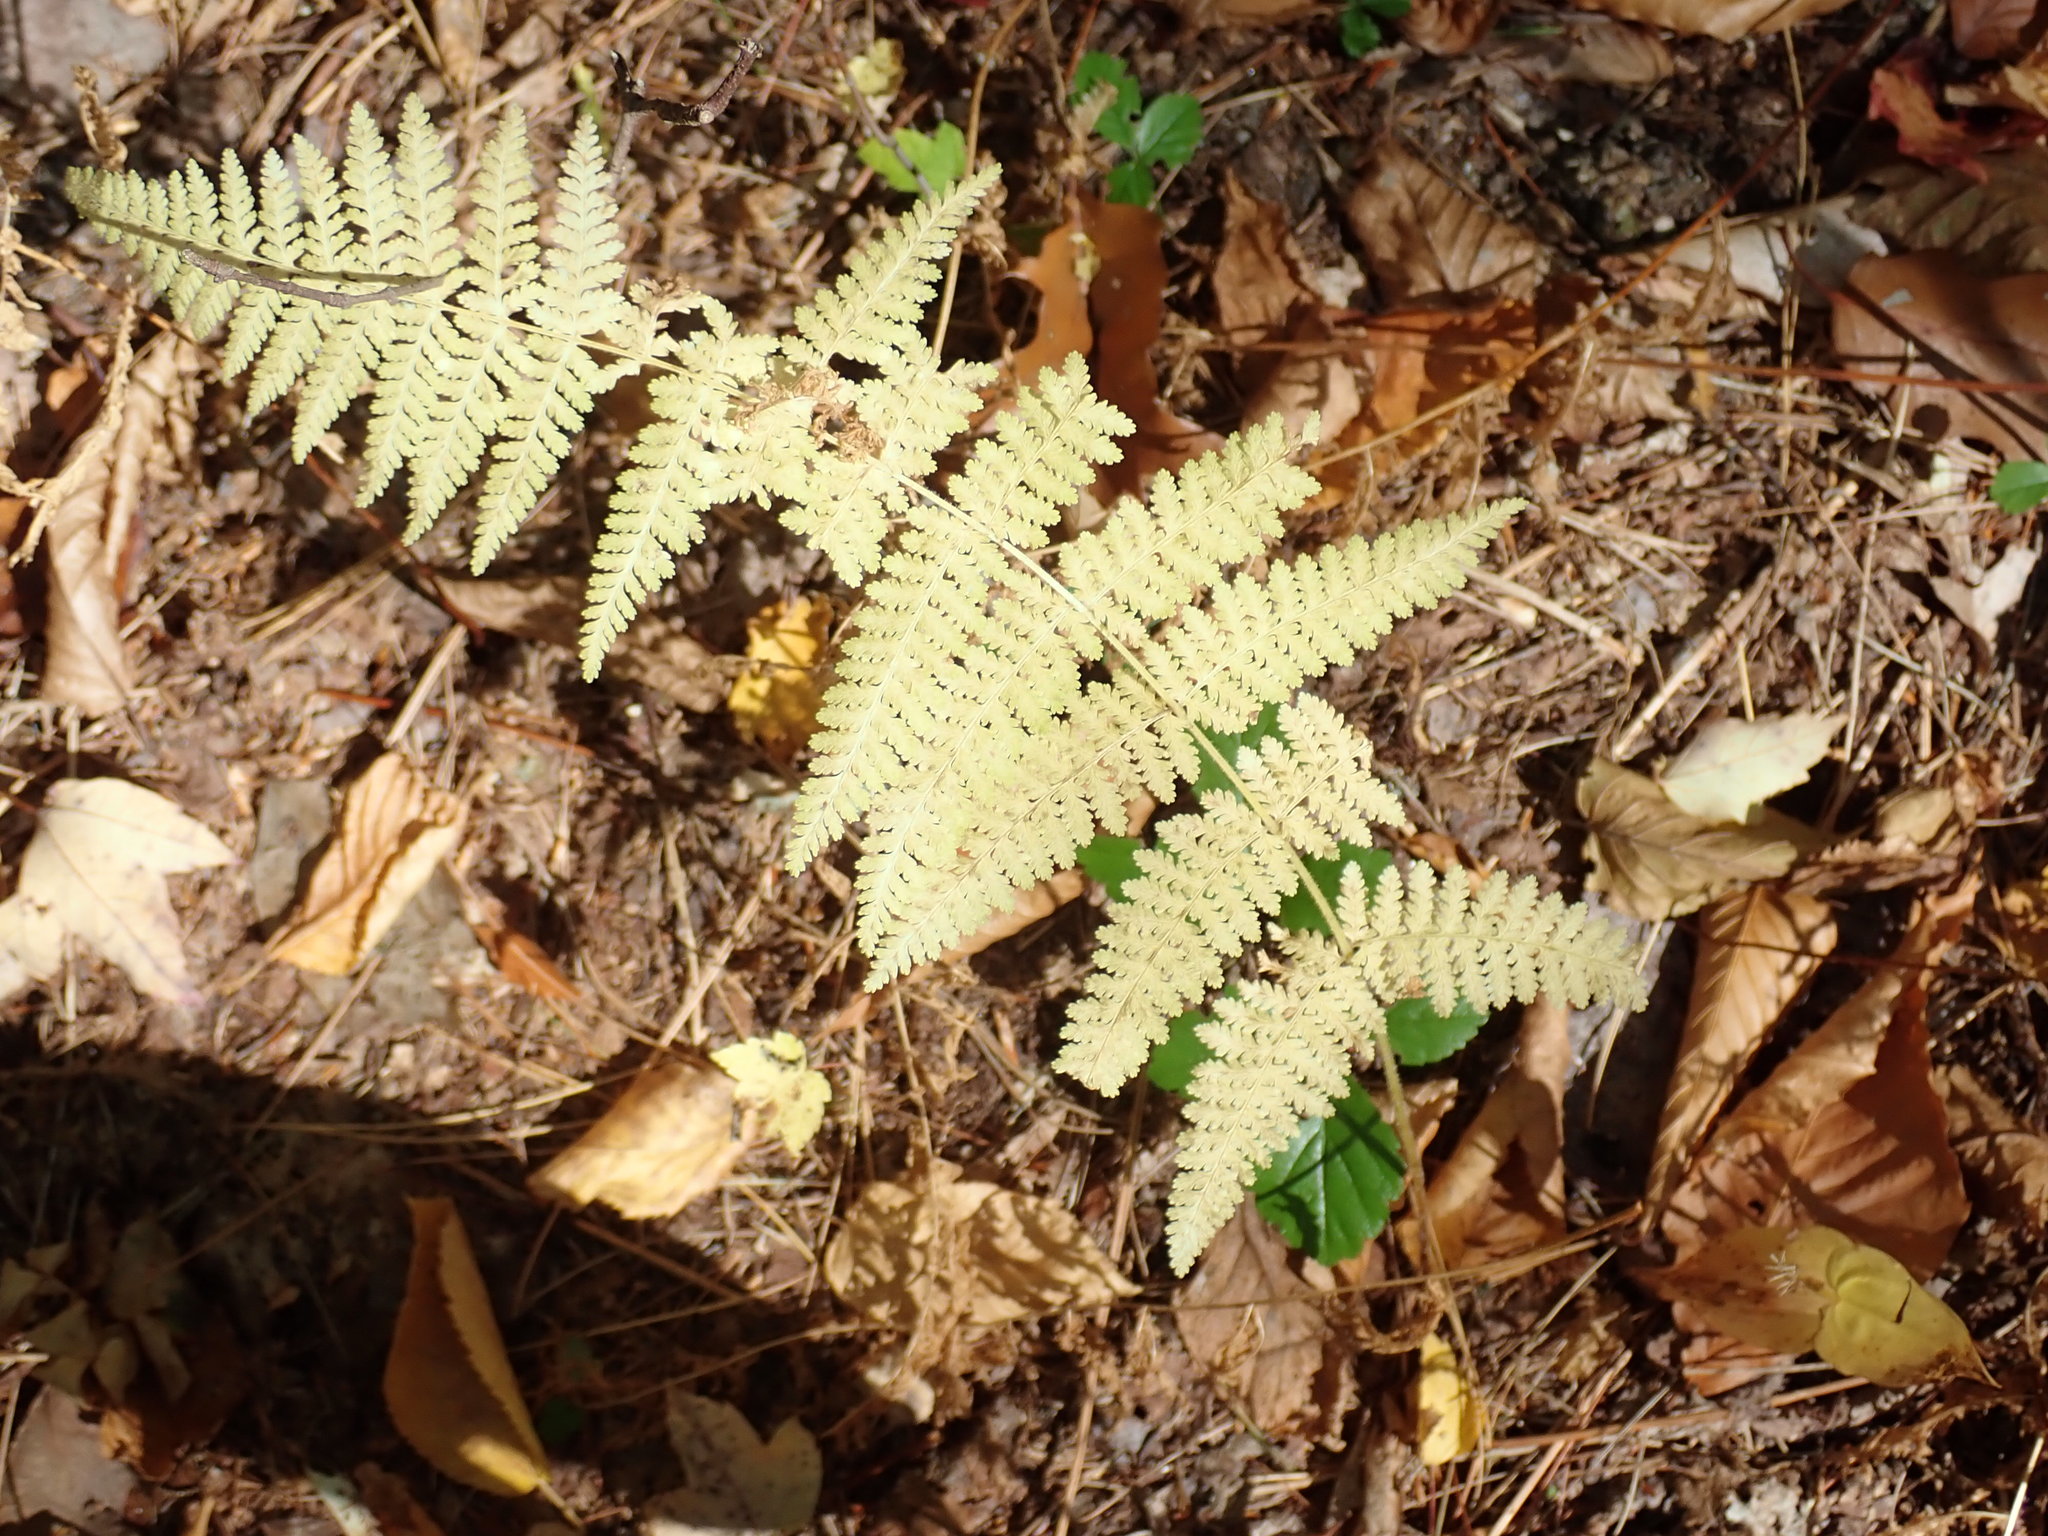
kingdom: Plantae
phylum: Tracheophyta
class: Polypodiopsida
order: Polypodiales
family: Dennstaedtiaceae
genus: Sitobolium
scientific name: Sitobolium punctilobum
